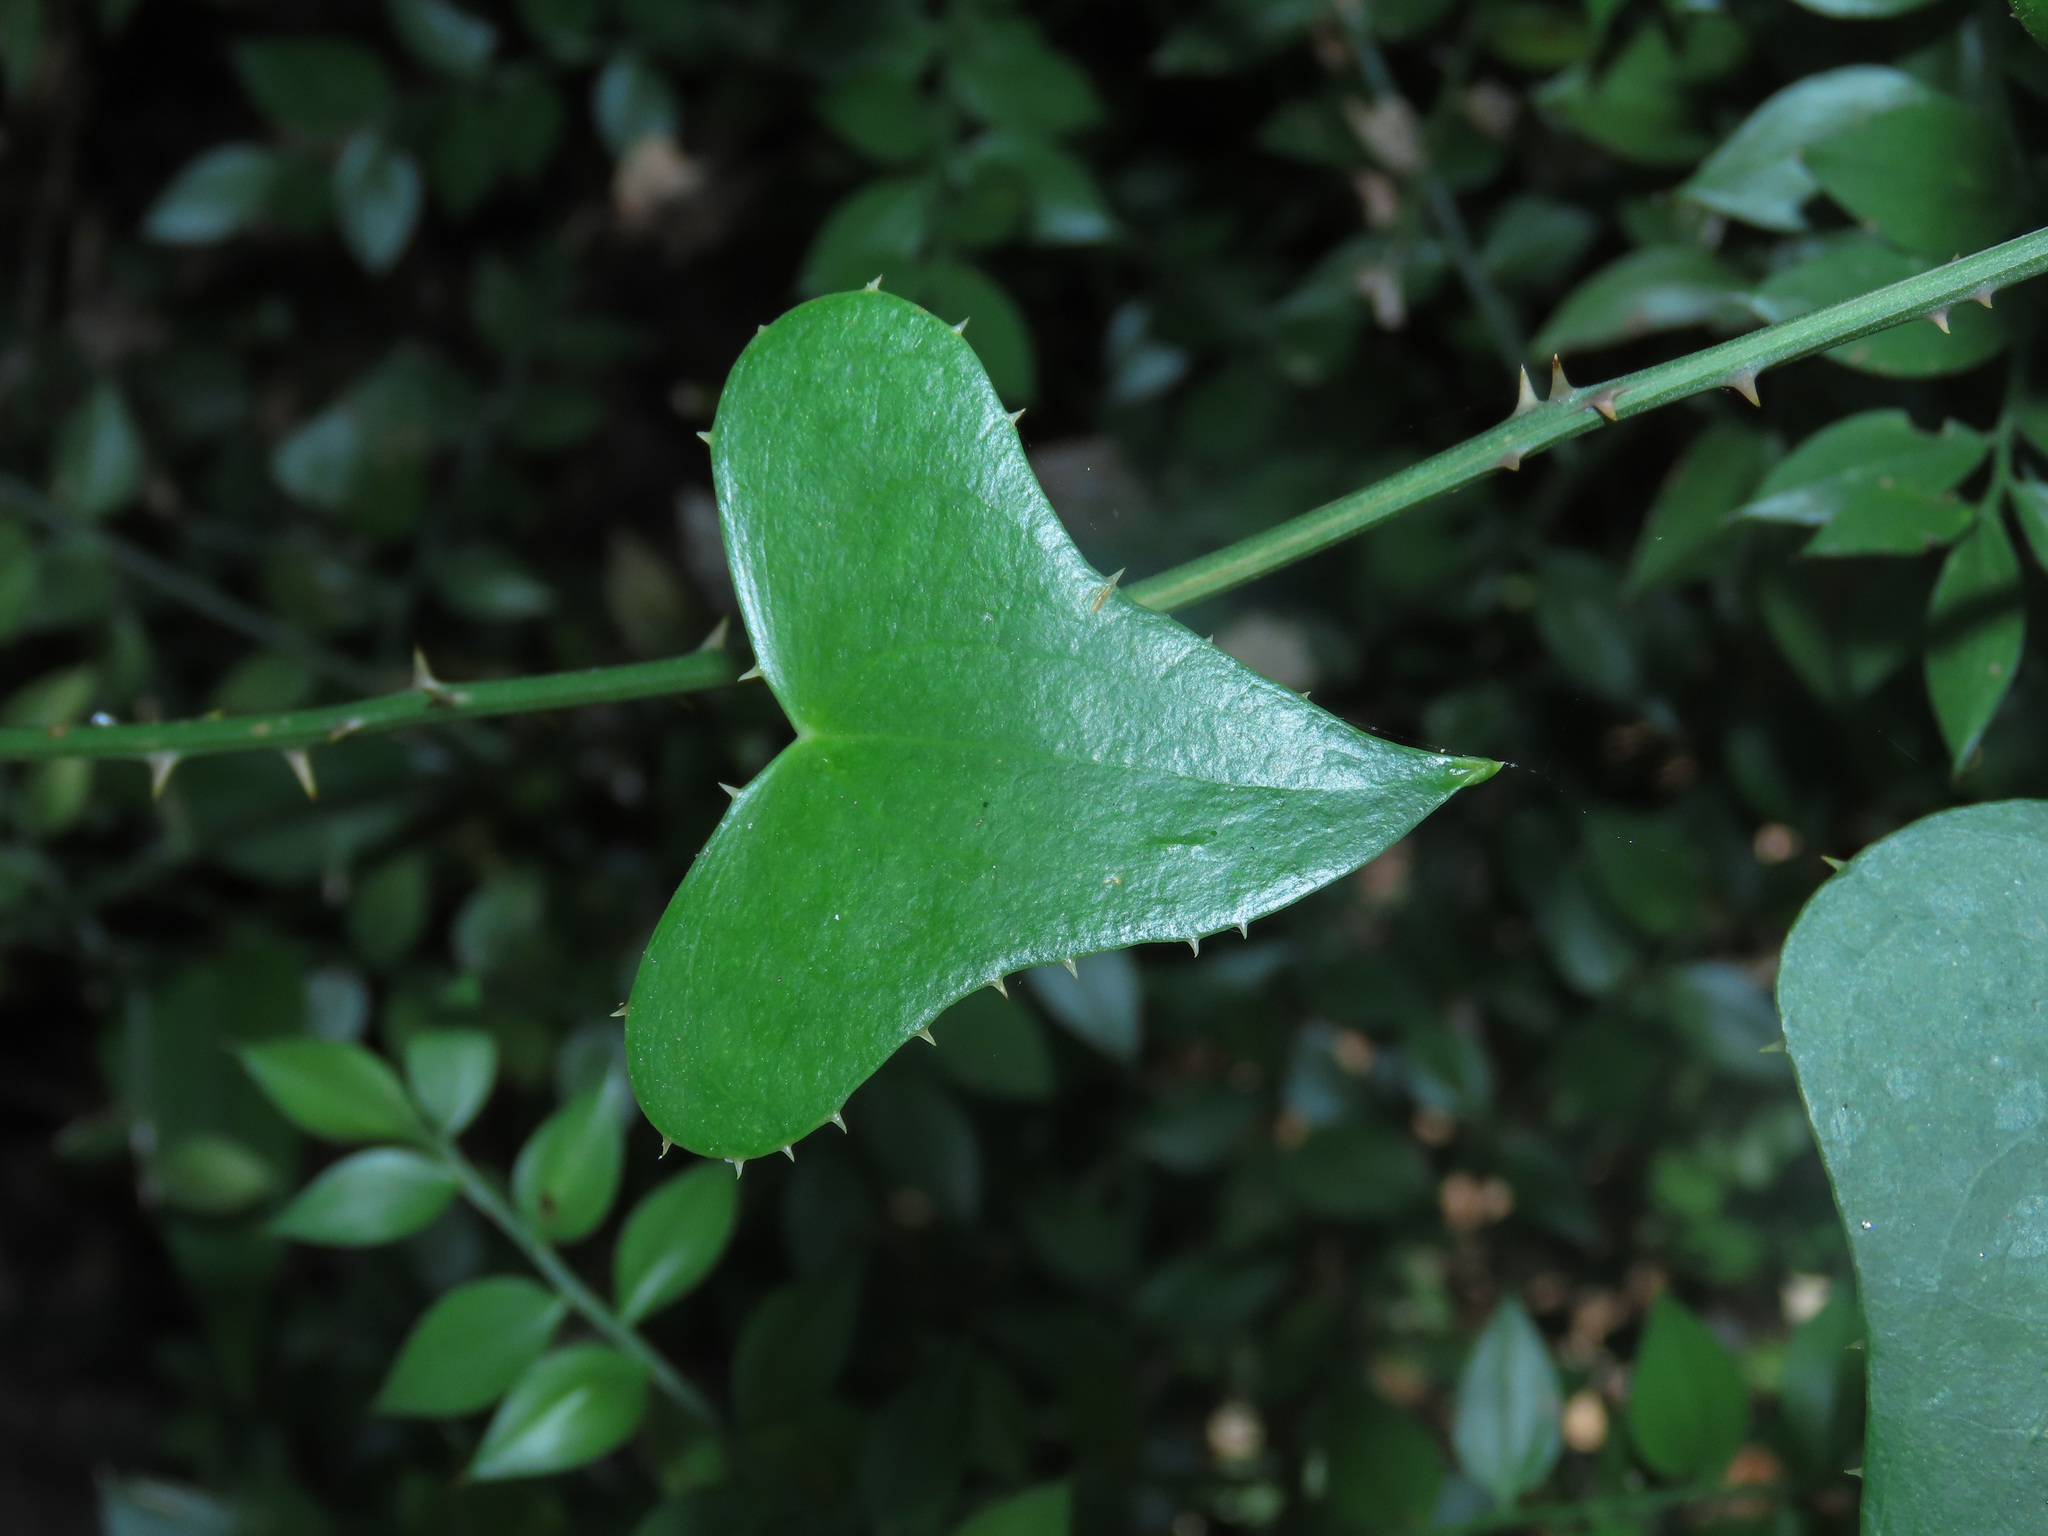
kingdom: Plantae
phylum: Tracheophyta
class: Liliopsida
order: Liliales
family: Smilacaceae
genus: Smilax
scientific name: Smilax aspera
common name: Common smilax
